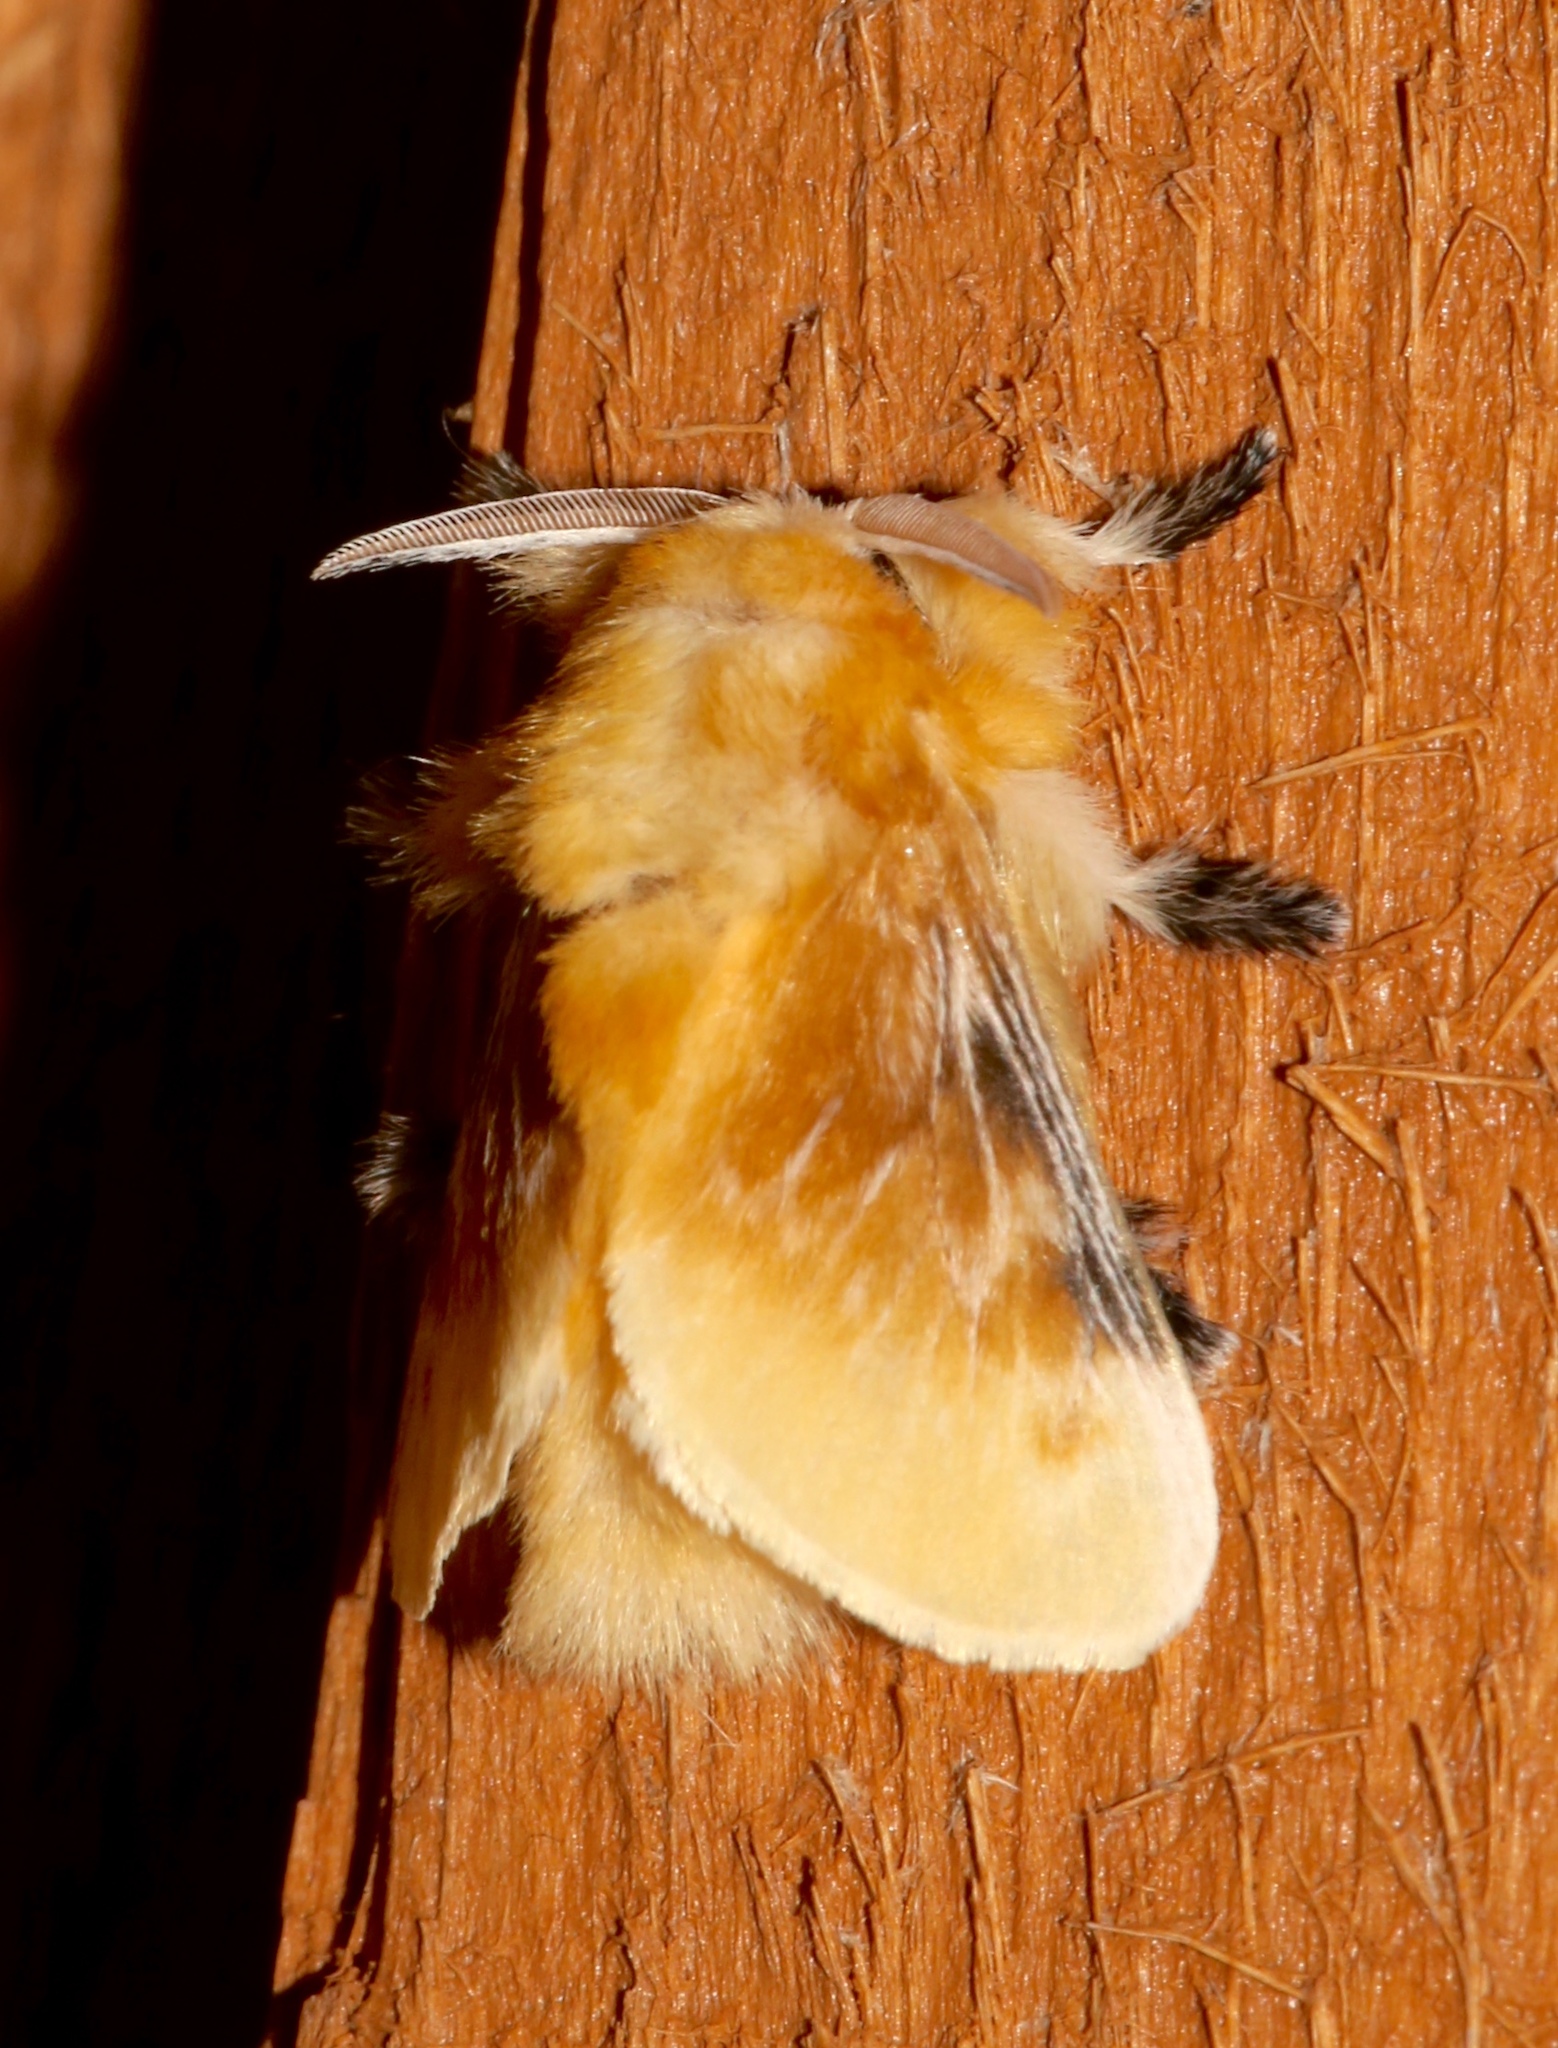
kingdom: Animalia
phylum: Arthropoda
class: Insecta
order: Lepidoptera
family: Megalopygidae
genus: Megalopyge
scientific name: Megalopyge opercularis
